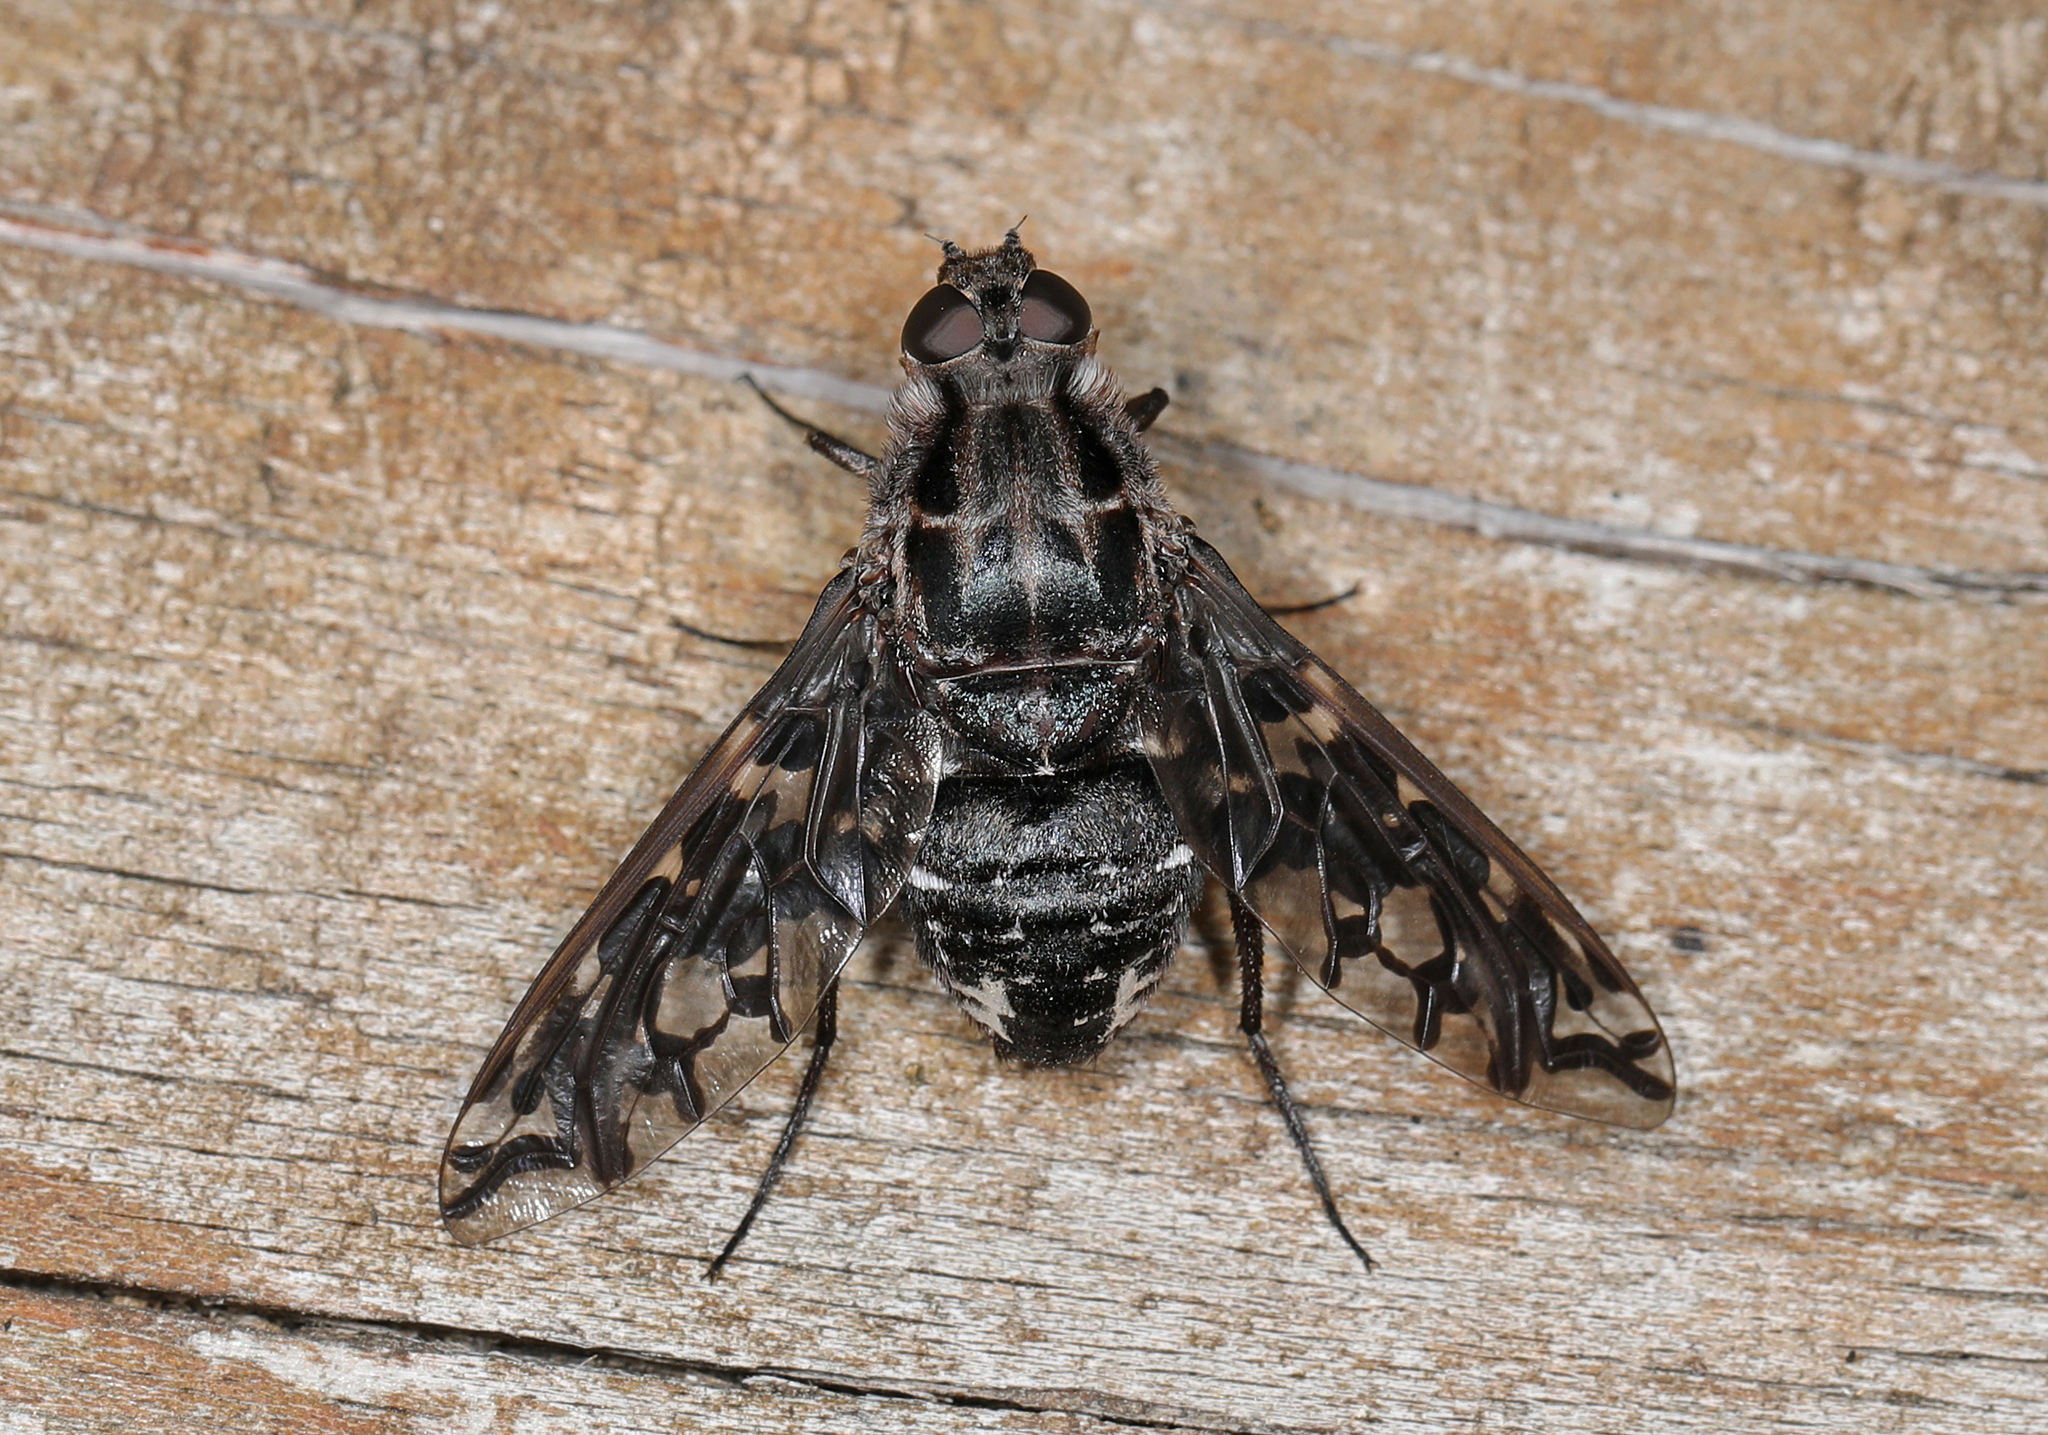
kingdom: Animalia
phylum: Arthropoda
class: Insecta
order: Diptera
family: Bombyliidae
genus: Xenox
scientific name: Xenox tigrinus
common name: Tiger bee fly
